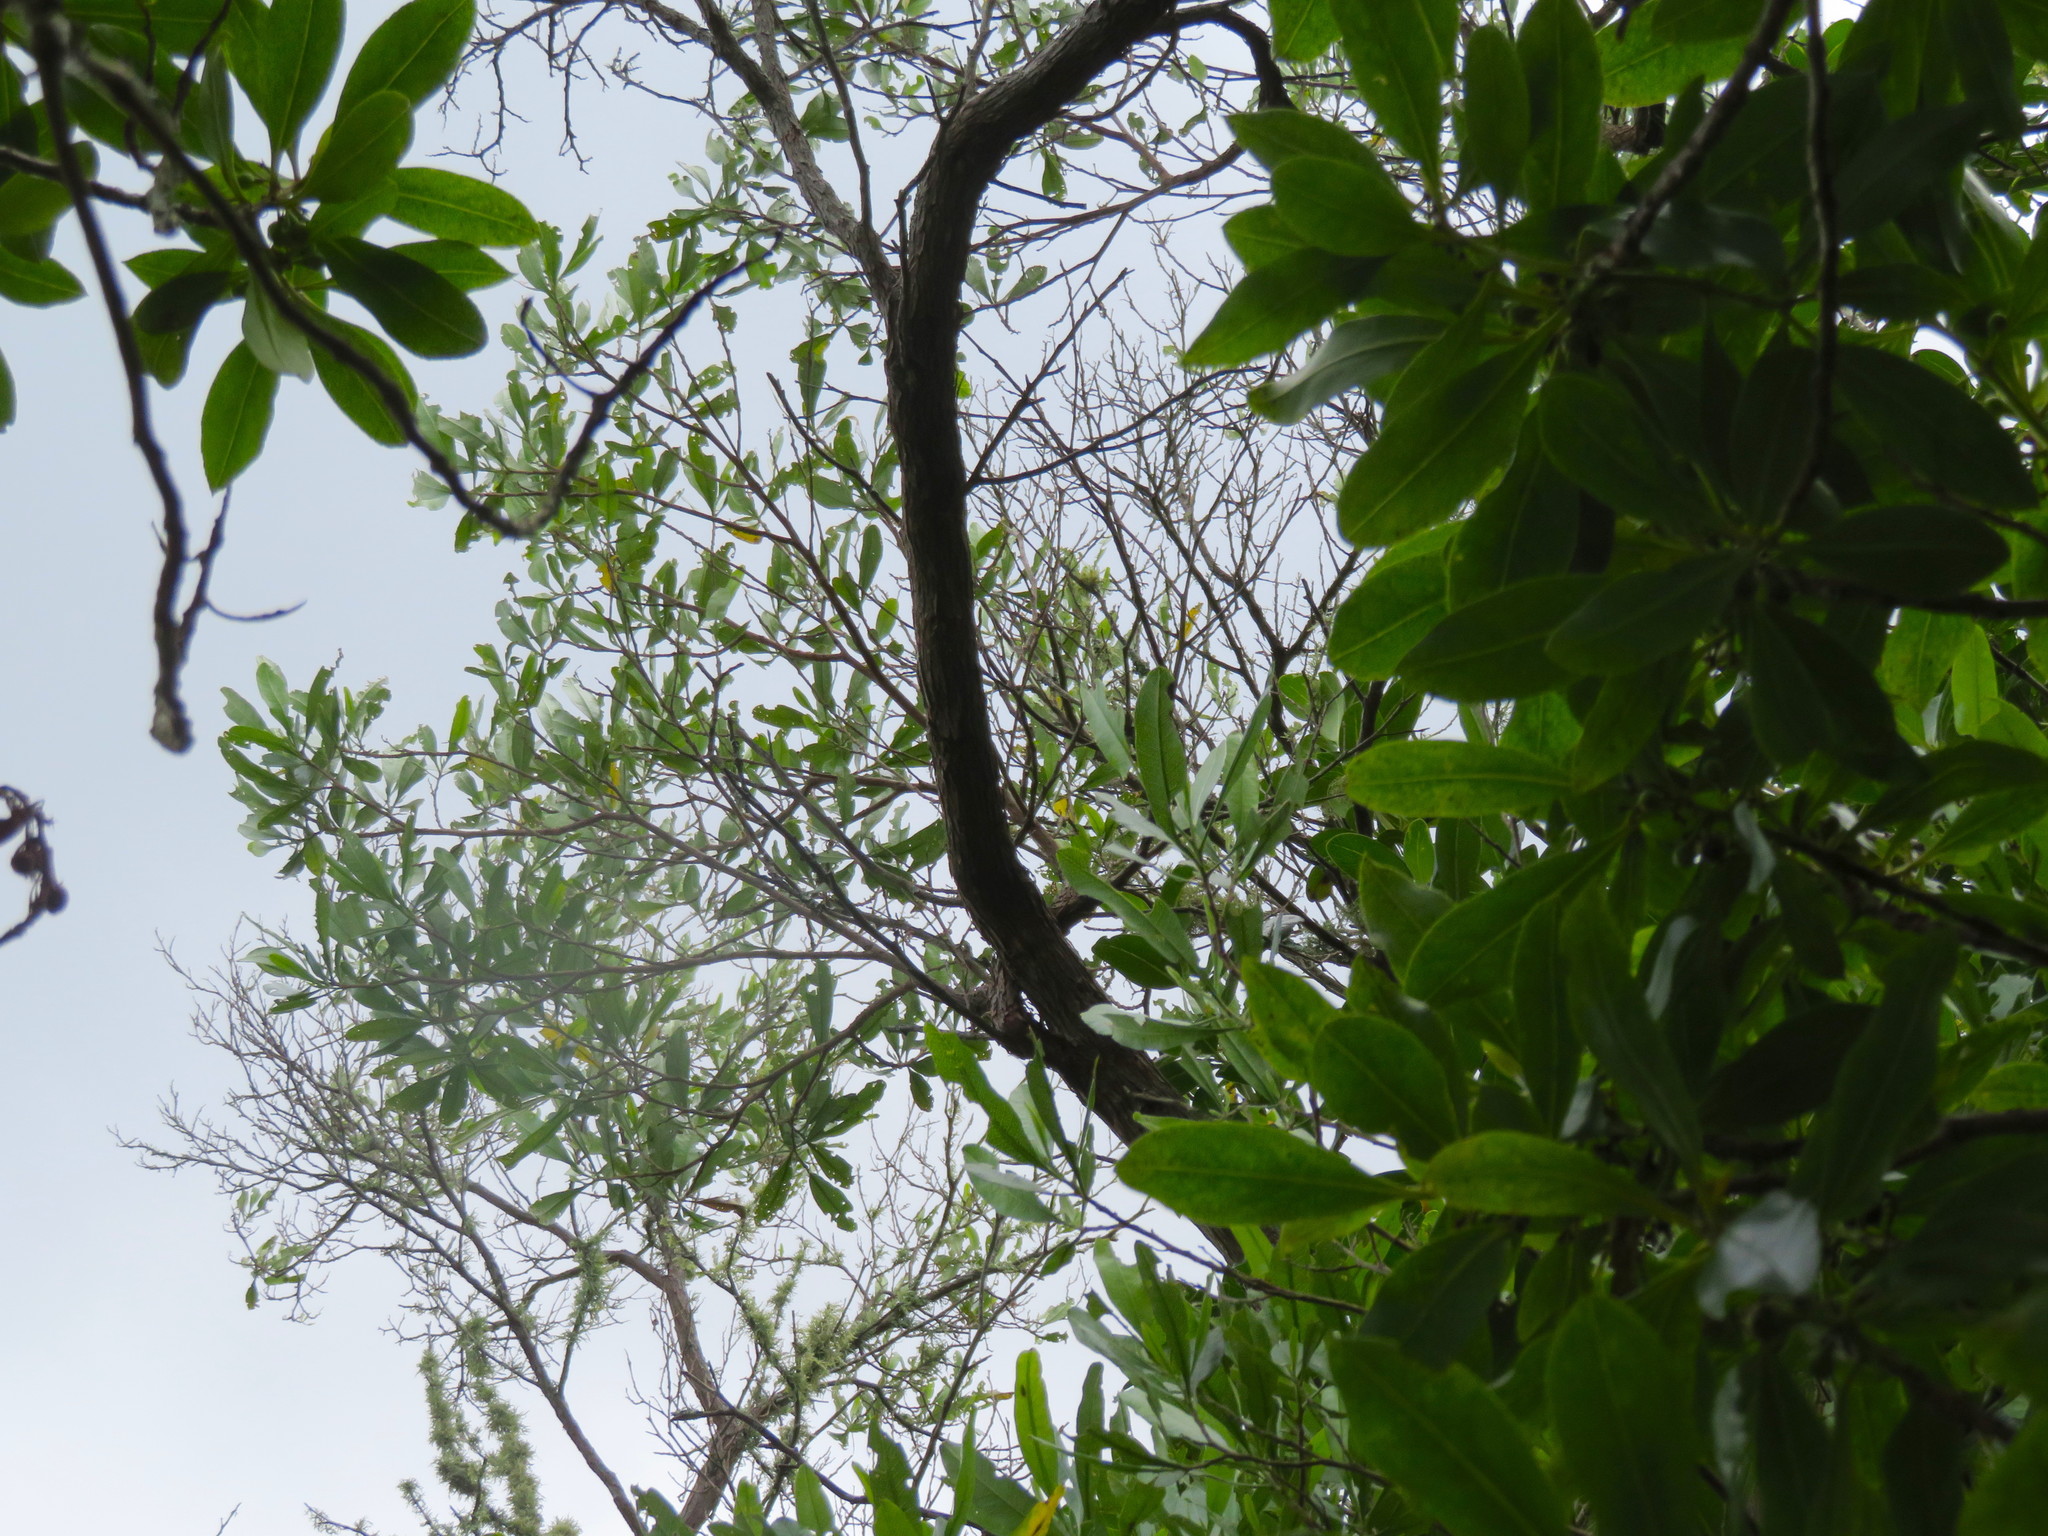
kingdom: Plantae
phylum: Tracheophyta
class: Magnoliopsida
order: Sapindales
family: Sapindaceae
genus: Dodonaea
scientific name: Dodonaea viscosa
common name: Hopbush
